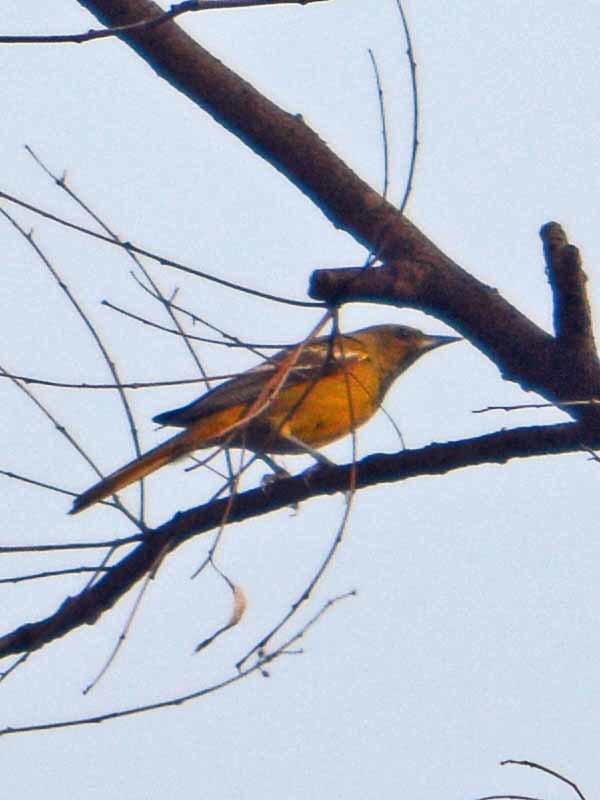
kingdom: Animalia
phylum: Chordata
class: Aves
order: Passeriformes
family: Icteridae
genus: Icterus
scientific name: Icterus spurius
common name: Orchard oriole
